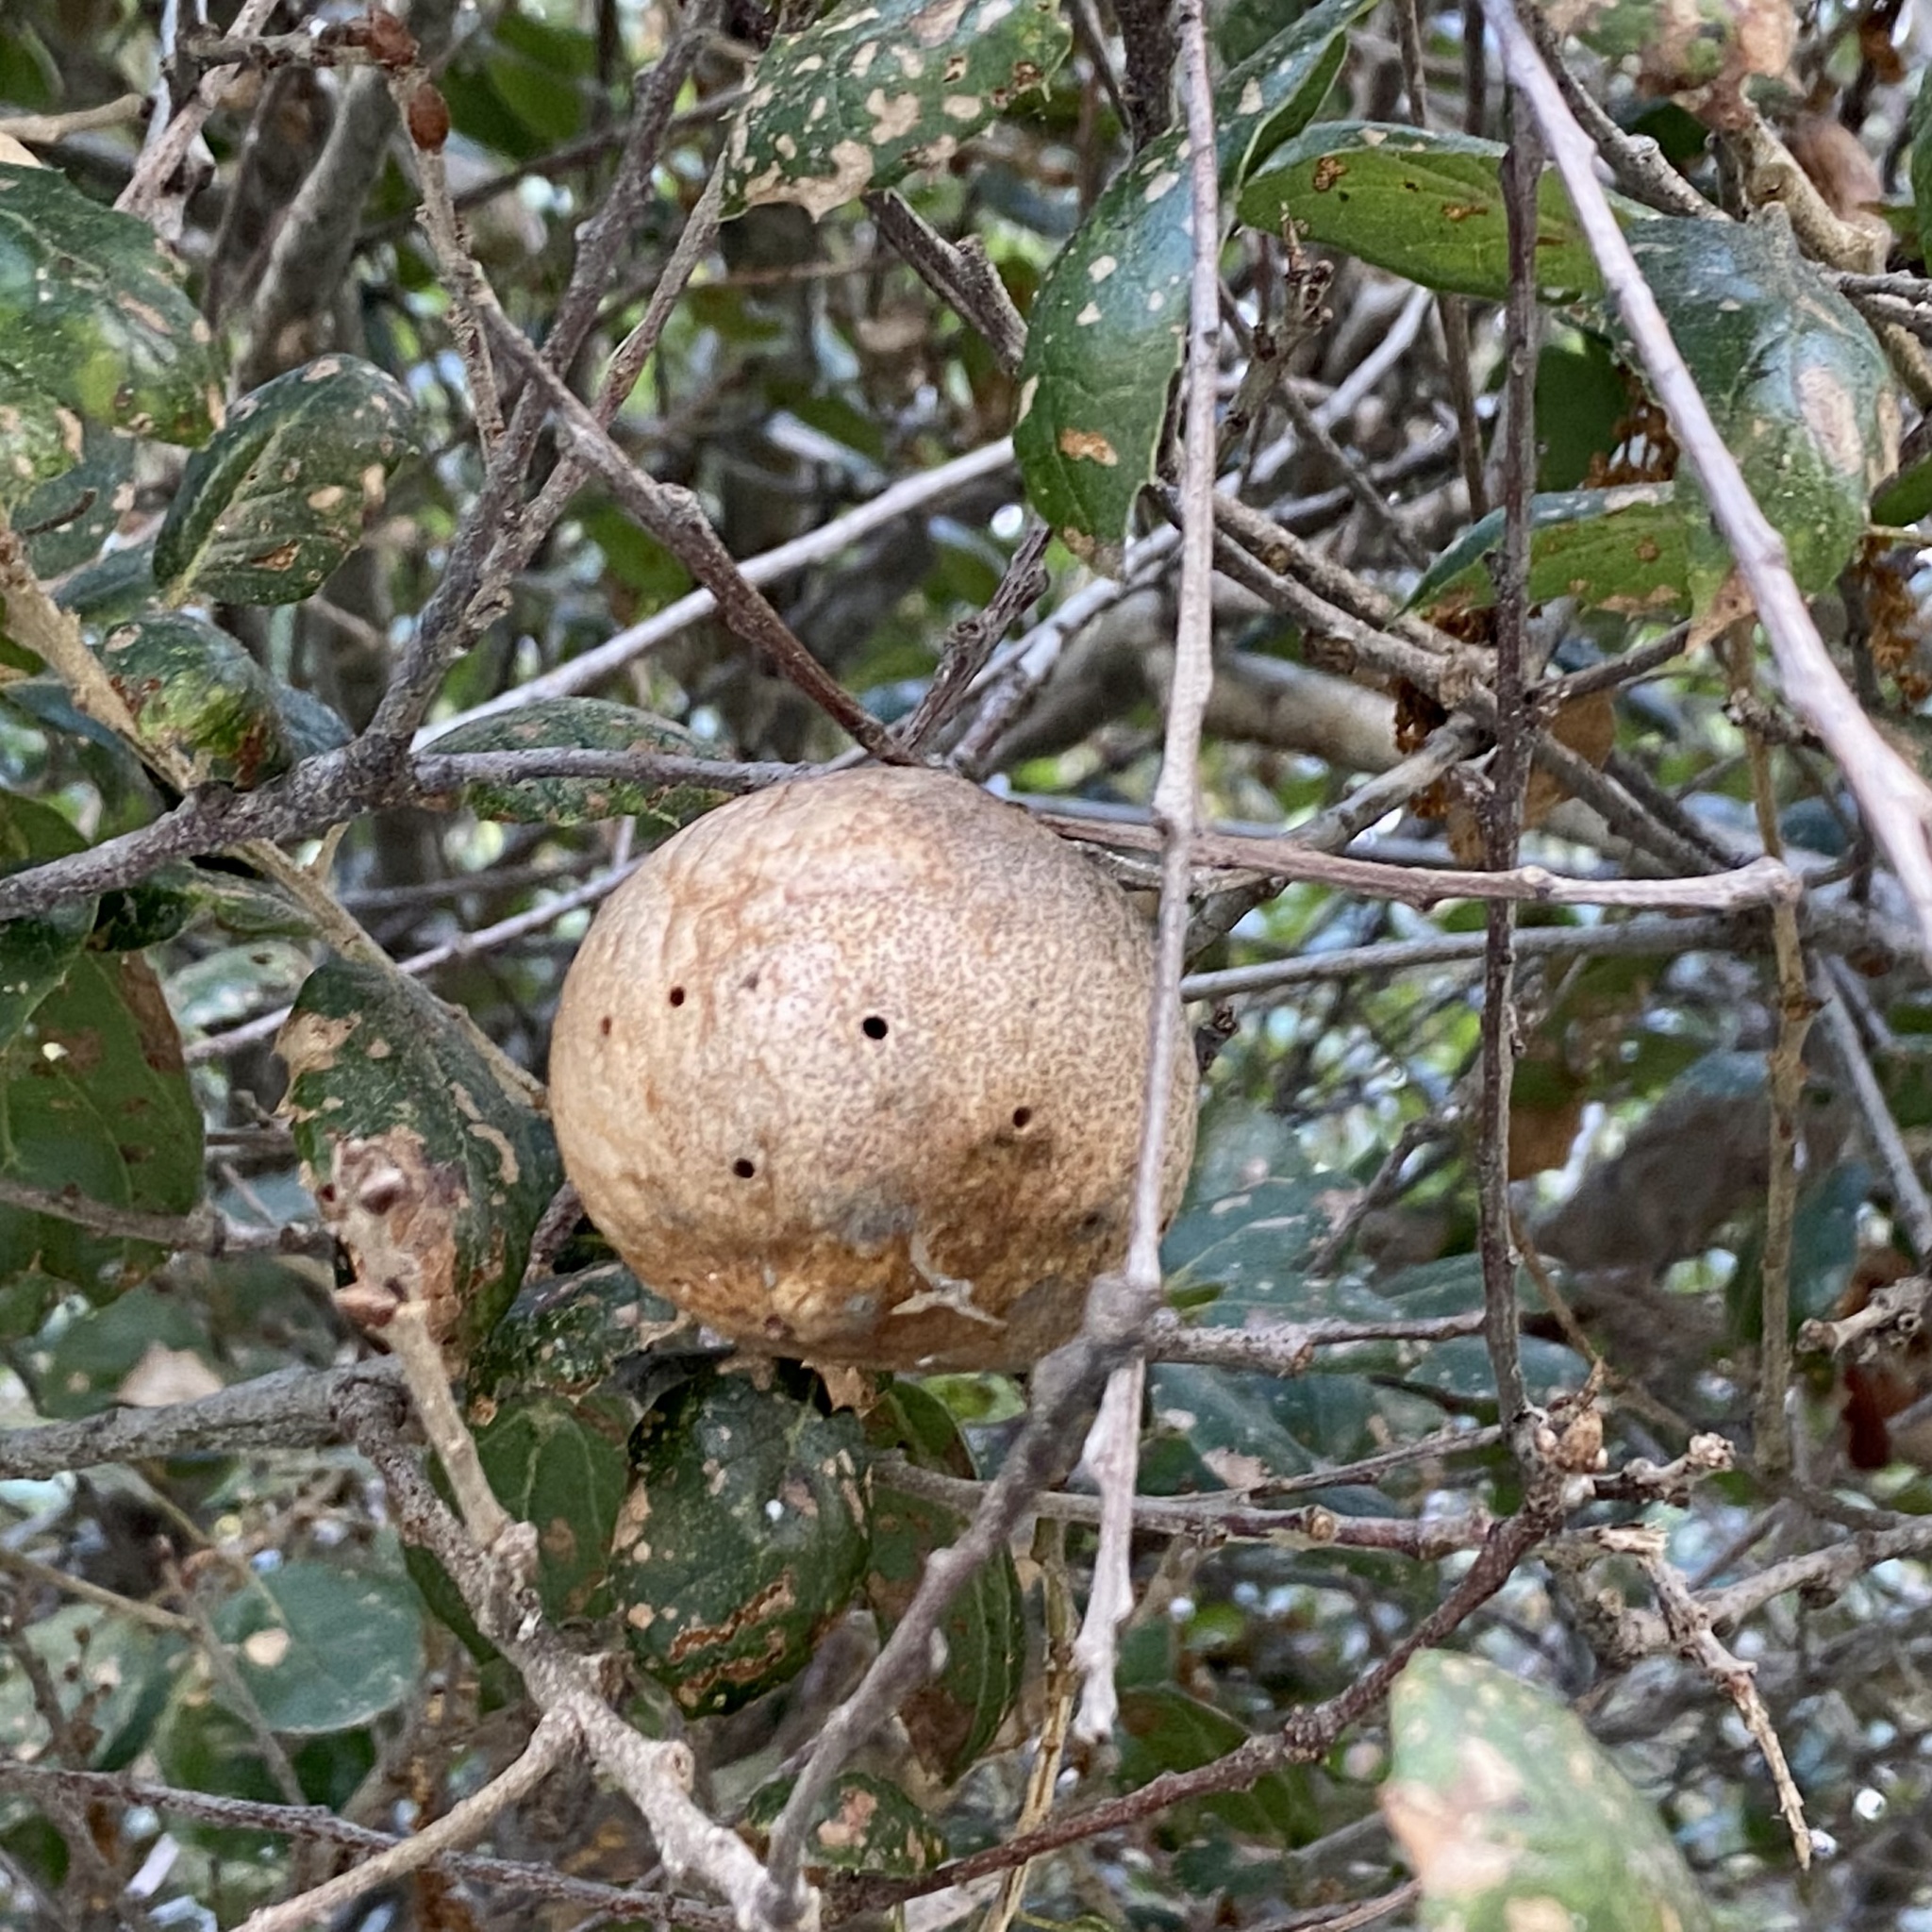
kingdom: Animalia
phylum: Arthropoda
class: Insecta
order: Hymenoptera
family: Cynipidae
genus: Amphibolips
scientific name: Amphibolips quercuspomiformis
